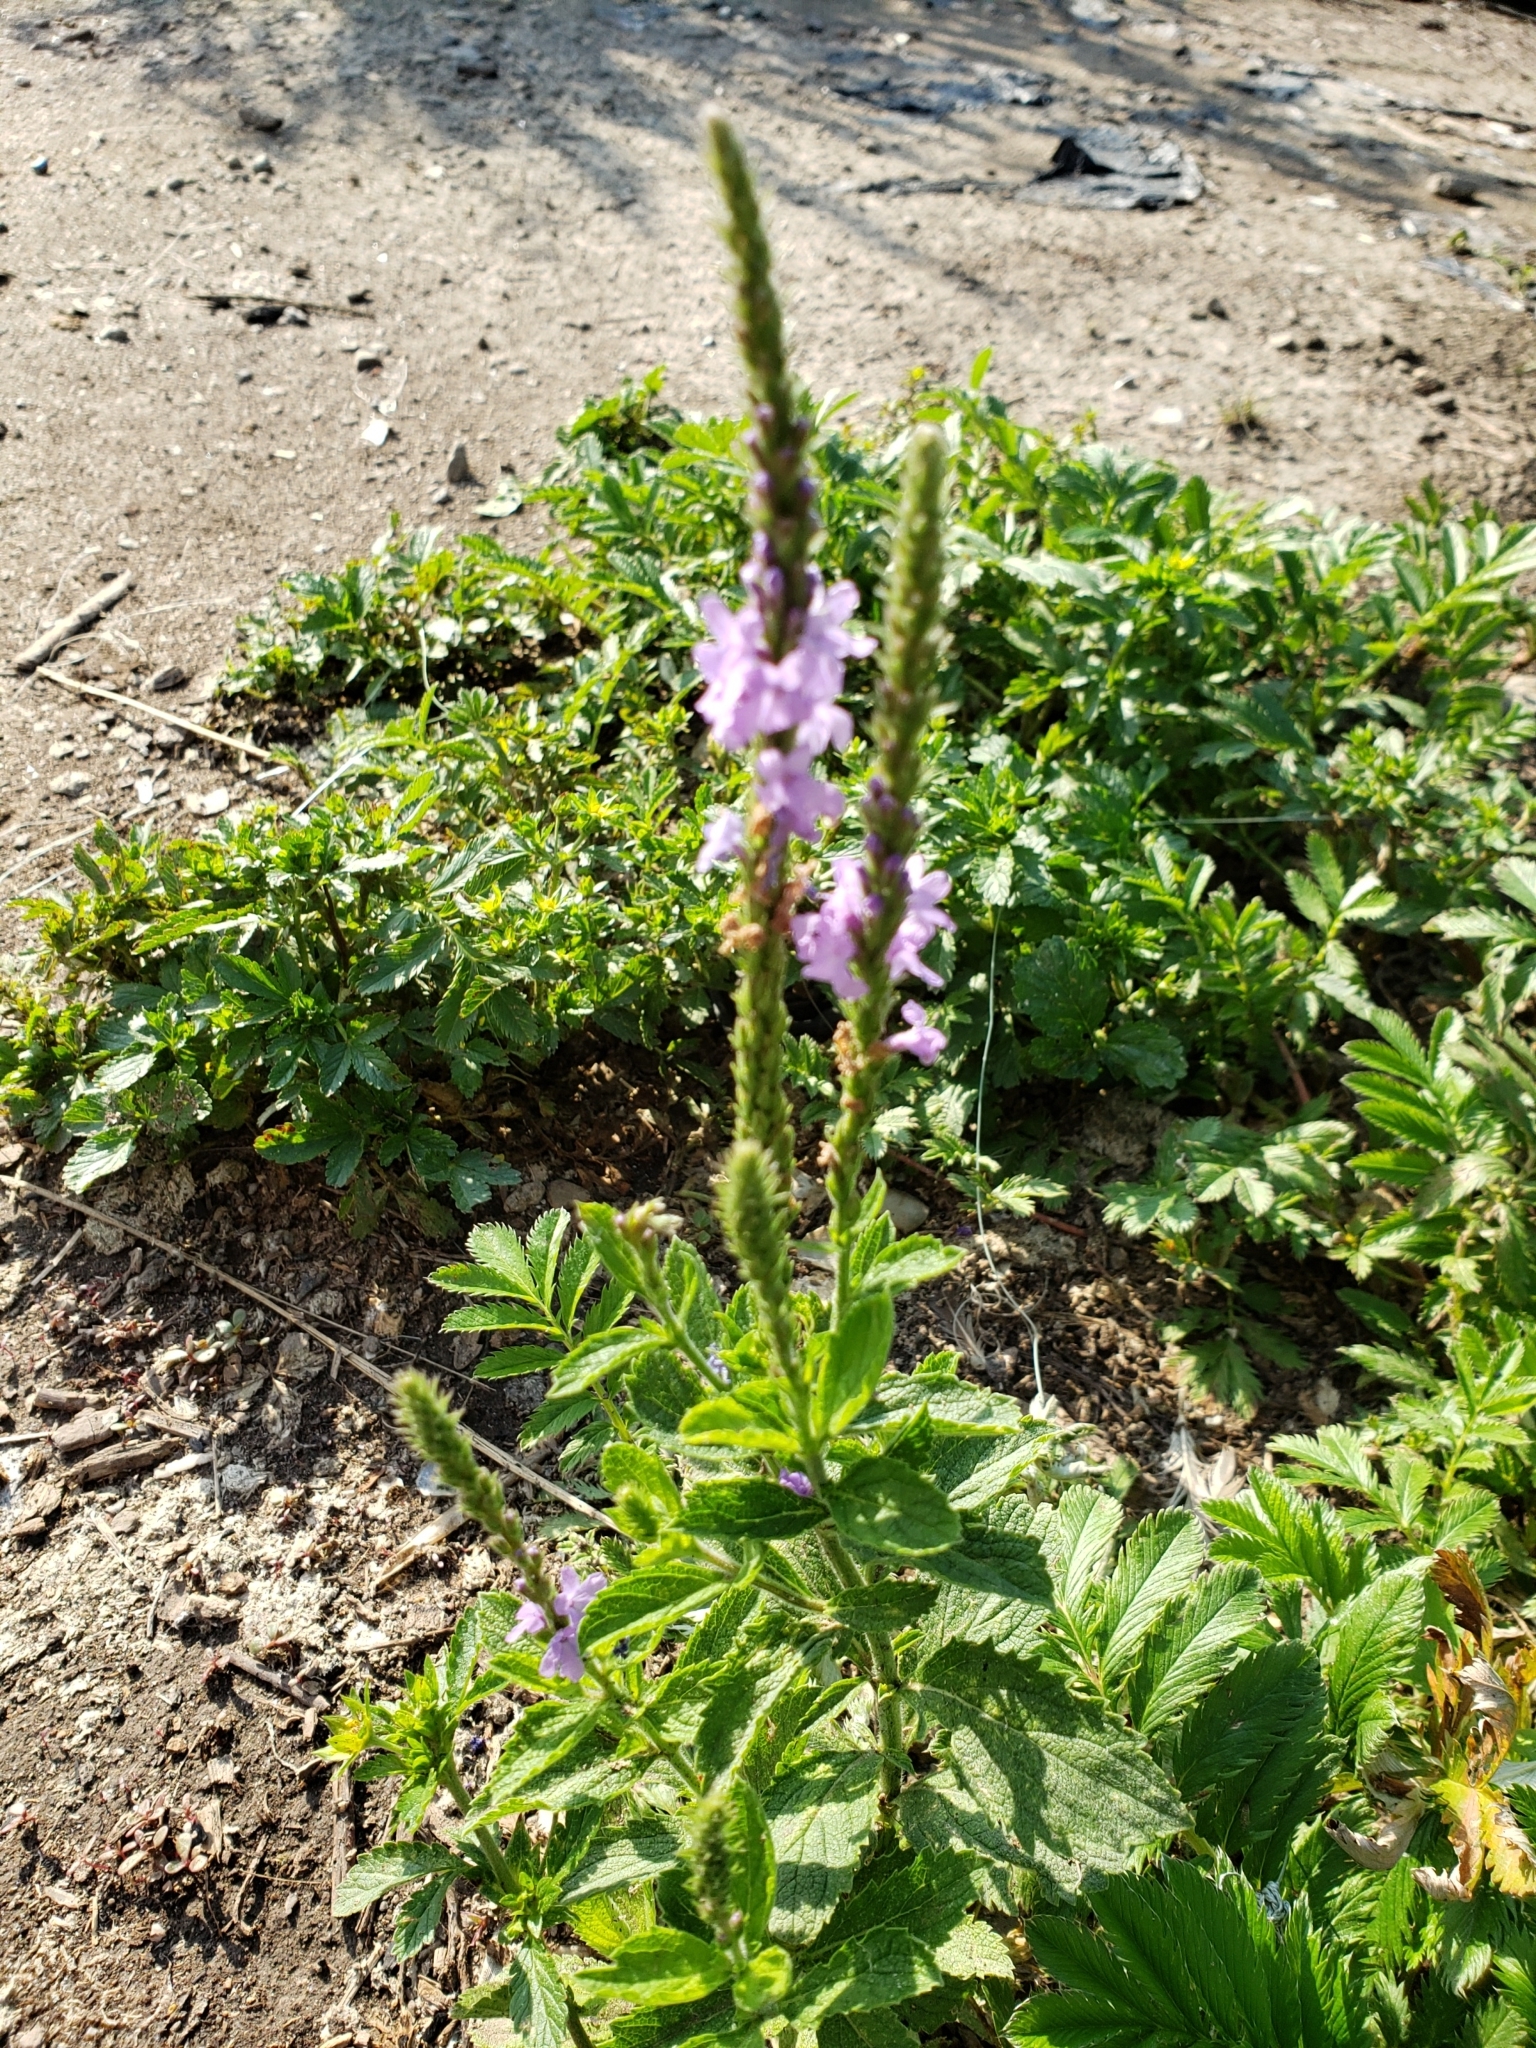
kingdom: Plantae
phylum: Tracheophyta
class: Magnoliopsida
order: Lamiales
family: Verbenaceae
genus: Verbena
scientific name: Verbena stricta
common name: Hoary vervain
